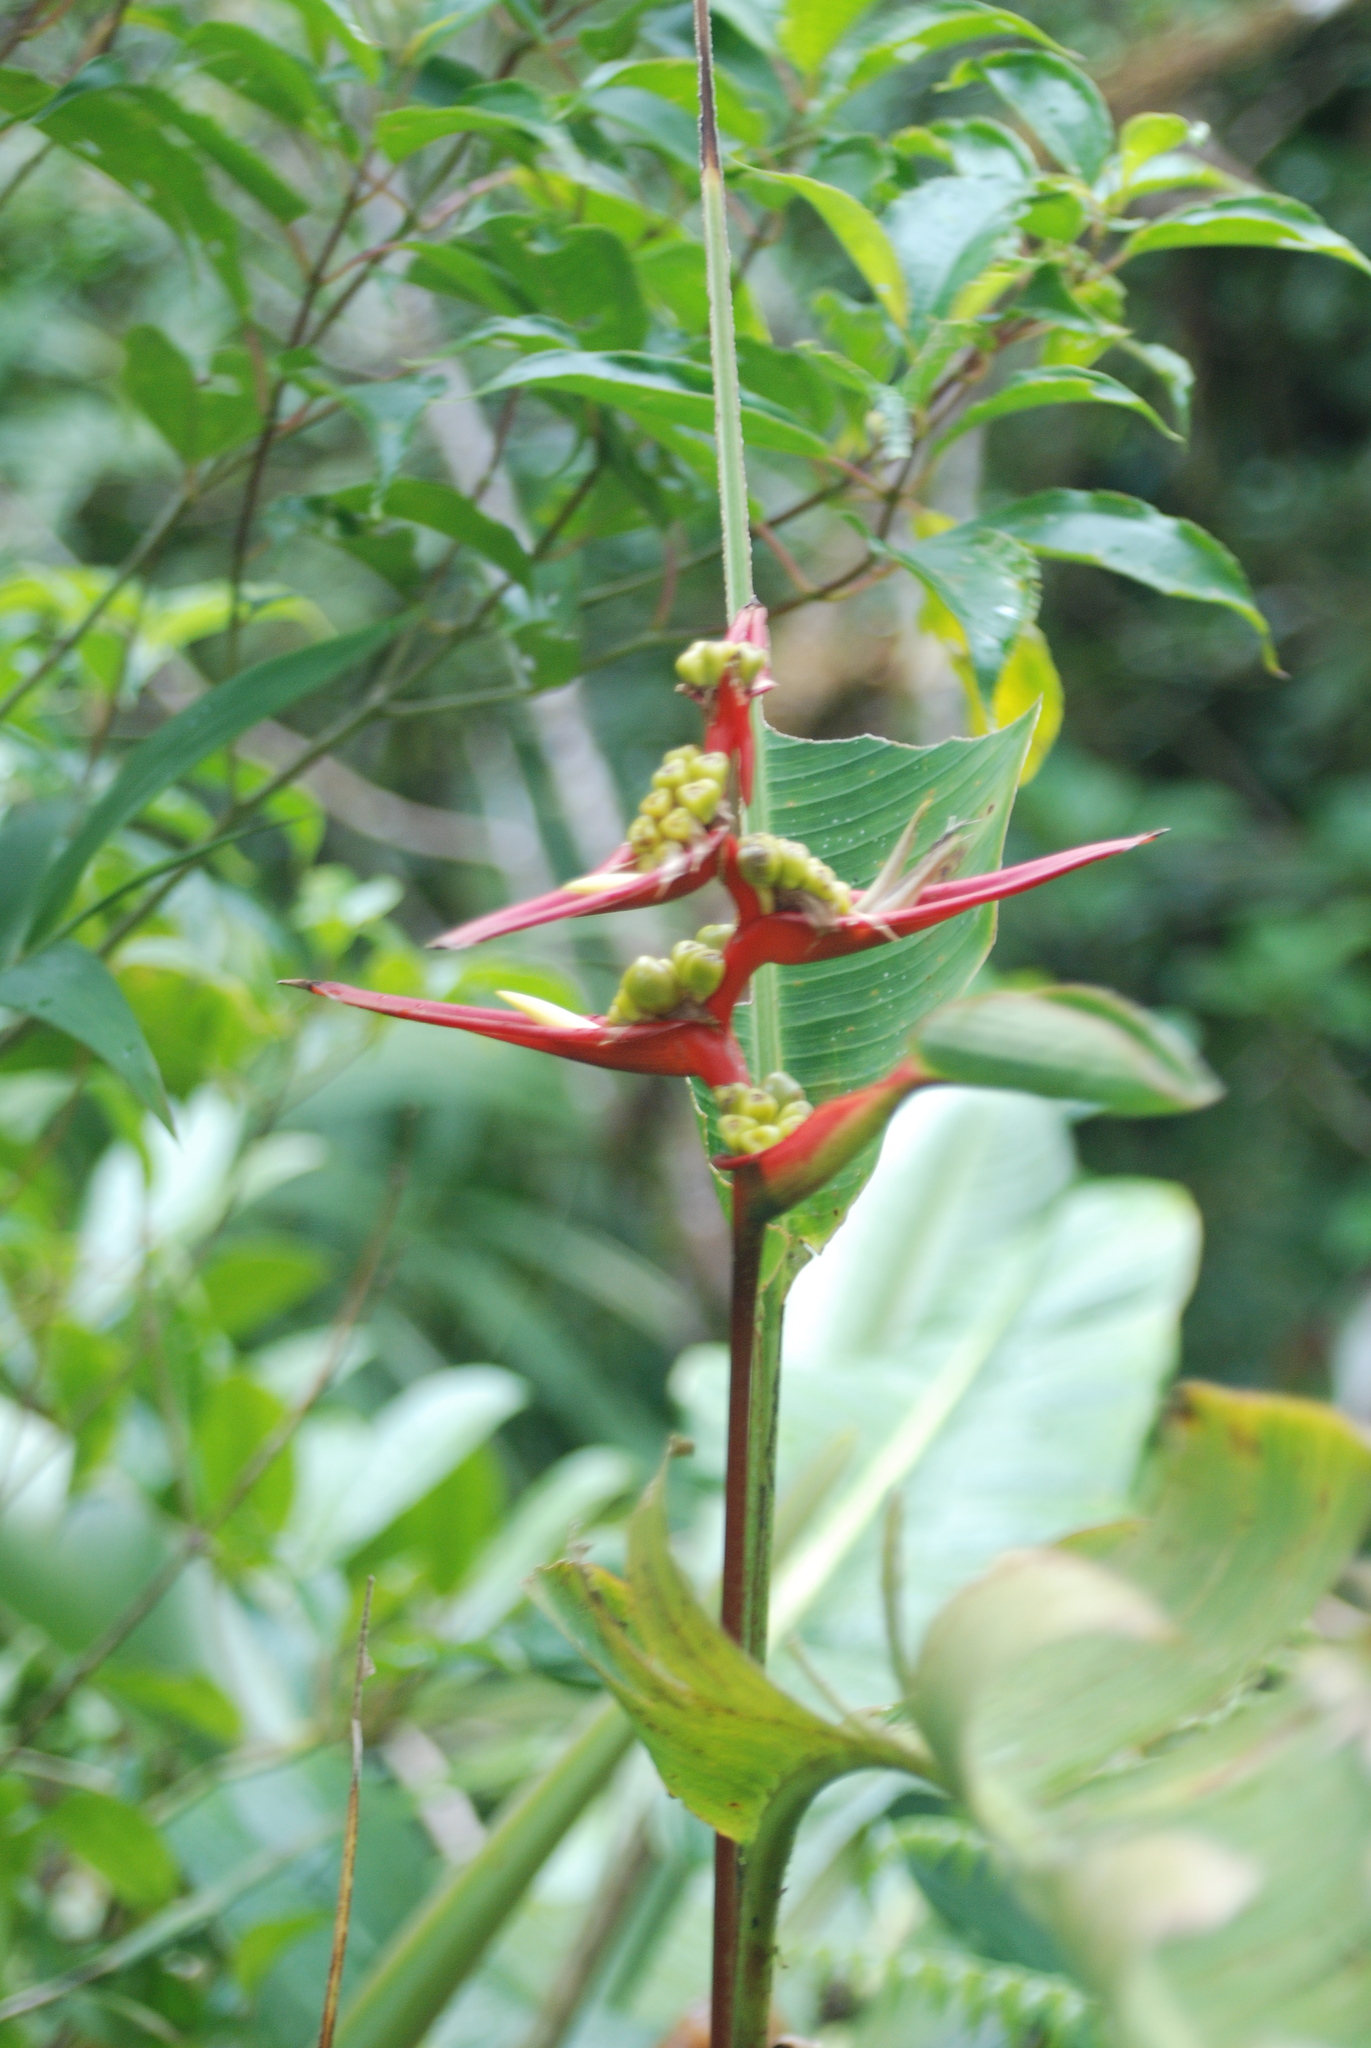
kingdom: Plantae
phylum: Tracheophyta
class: Liliopsida
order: Zingiberales
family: Heliconiaceae
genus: Heliconia
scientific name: Heliconia monteverdensis
